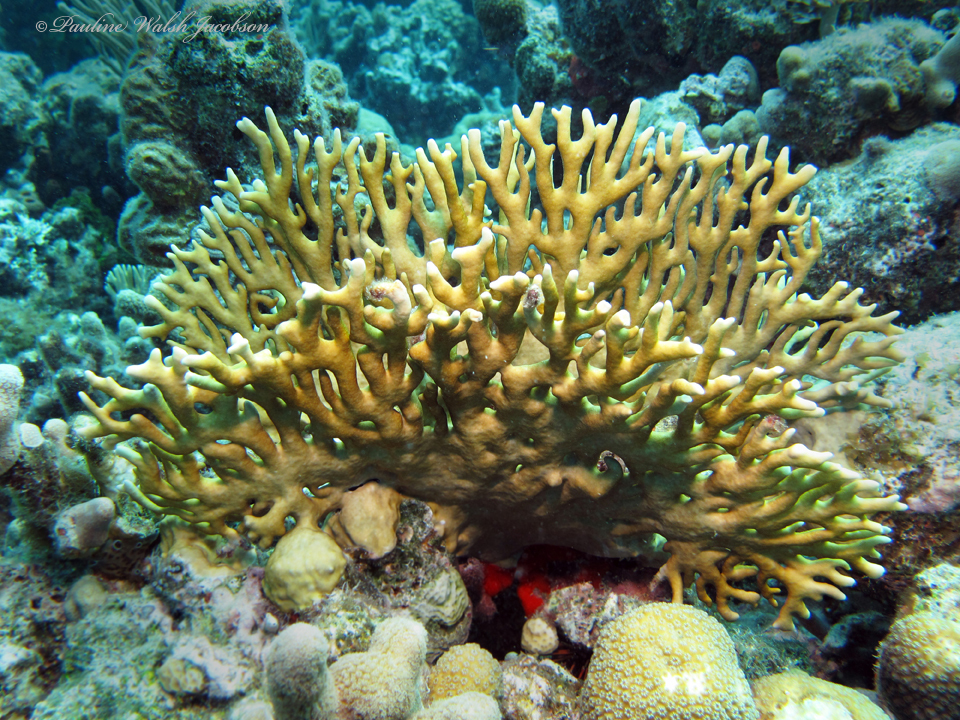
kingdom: Animalia
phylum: Cnidaria
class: Hydrozoa
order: Anthoathecata
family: Milleporidae
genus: Millepora
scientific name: Millepora alcicornis
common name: Branching fire coral
